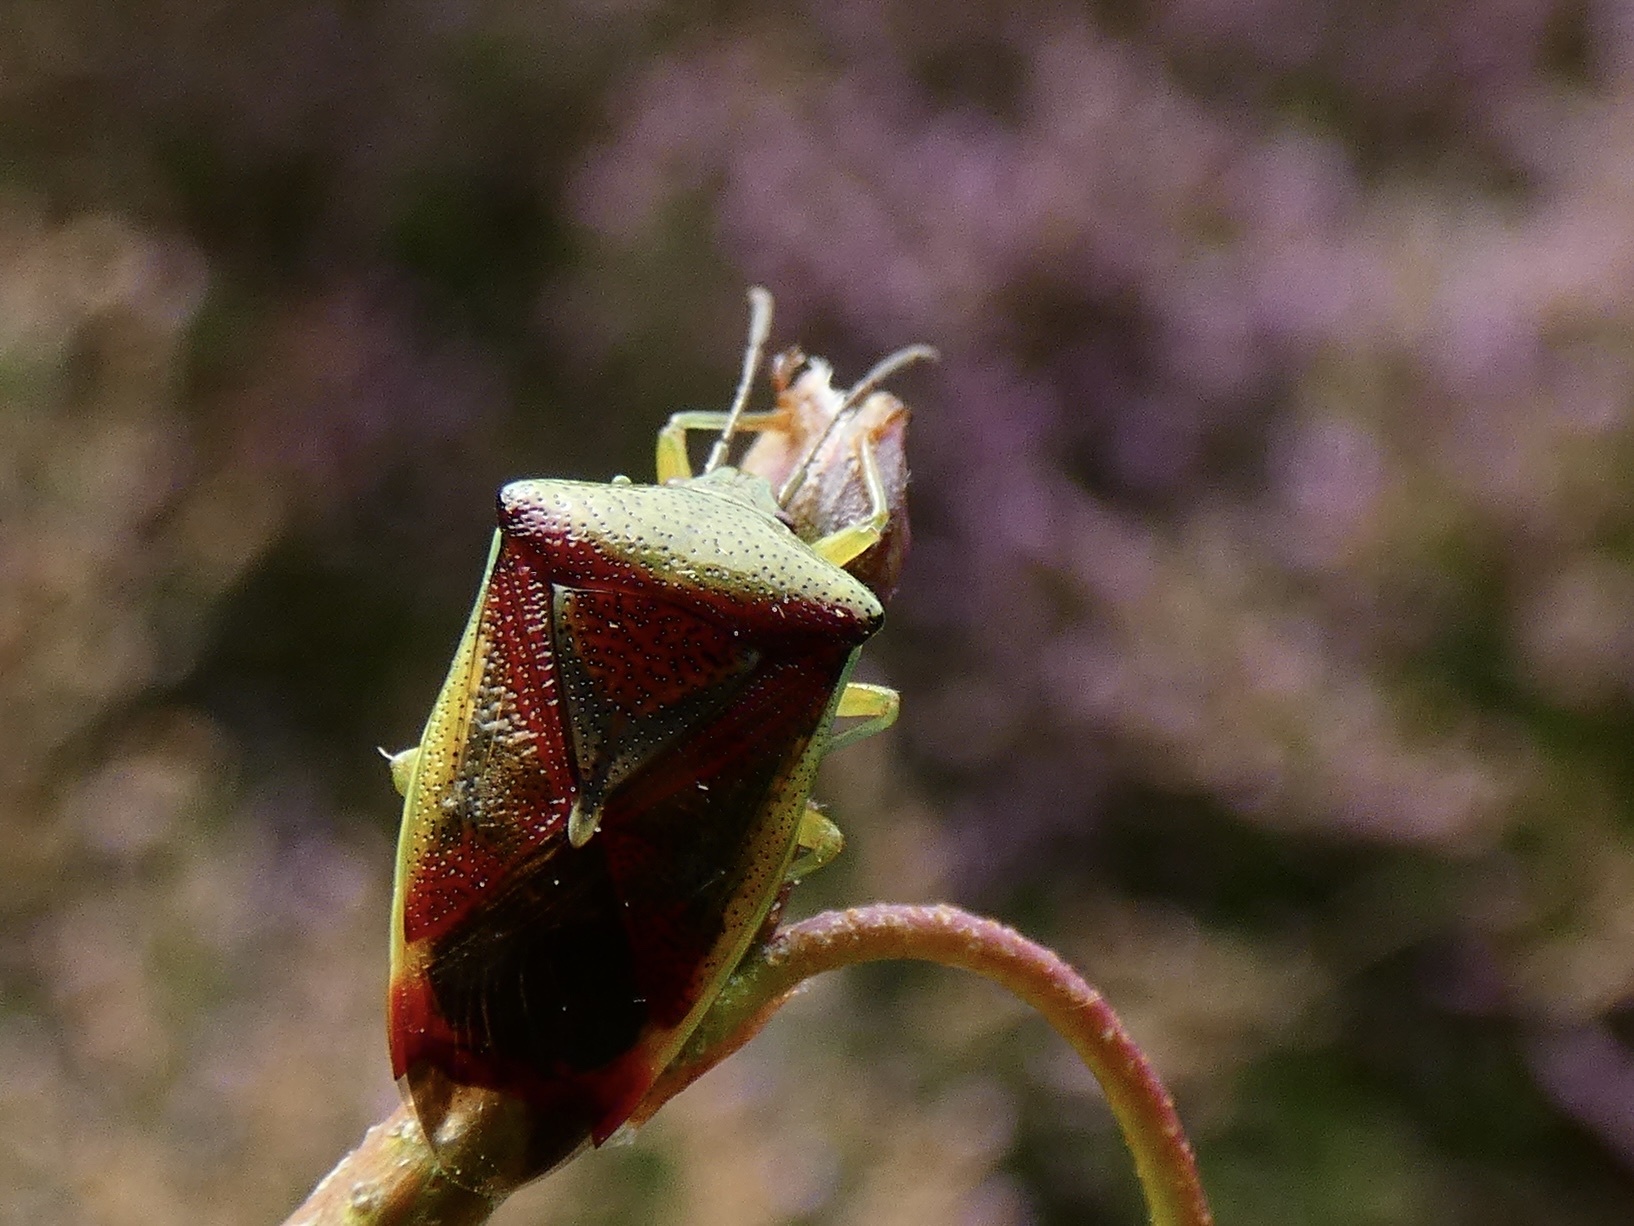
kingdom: Animalia
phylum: Arthropoda
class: Insecta
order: Hemiptera
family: Acanthosomatidae
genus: Elasmostethus
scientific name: Elasmostethus interstinctus
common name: Birch shieldbug
